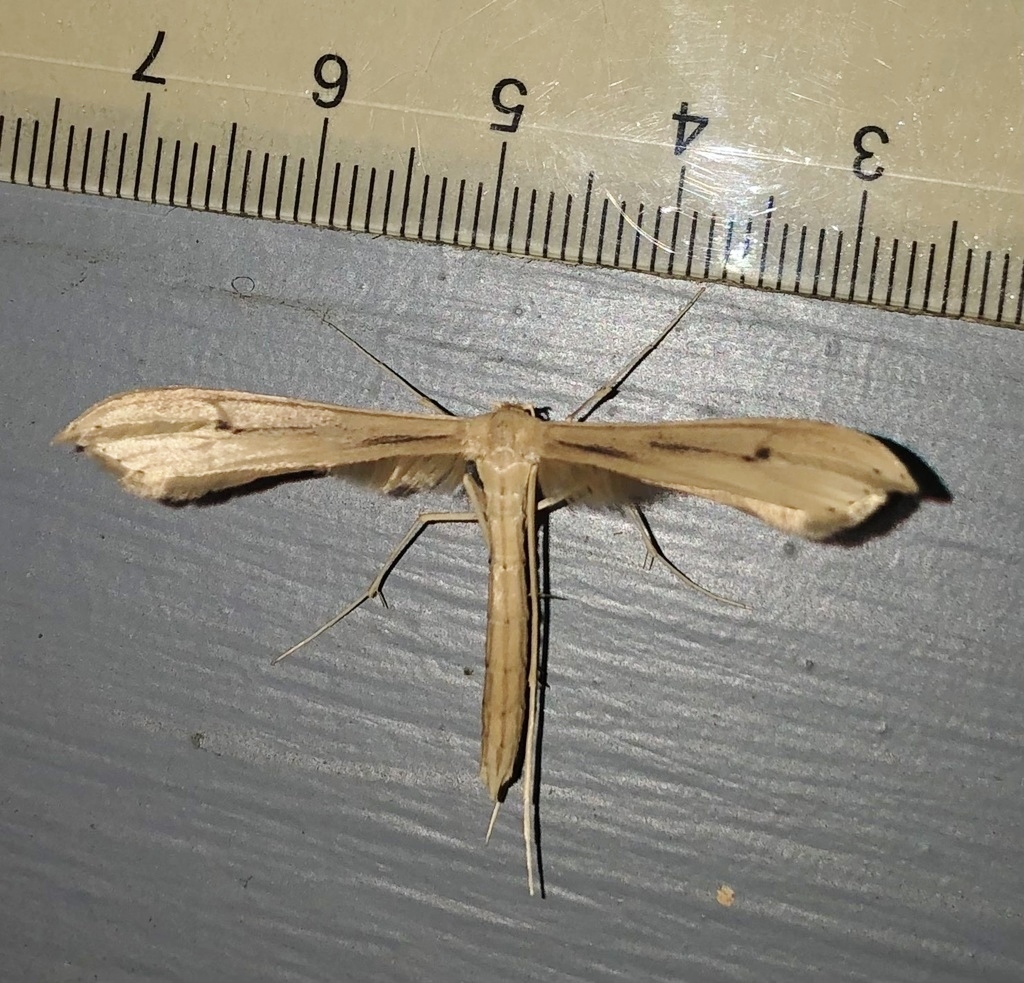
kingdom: Animalia
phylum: Arthropoda
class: Insecta
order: Lepidoptera
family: Pterophoridae
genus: Hellinsia
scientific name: Hellinsia balanotes
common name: Baccharis borer
